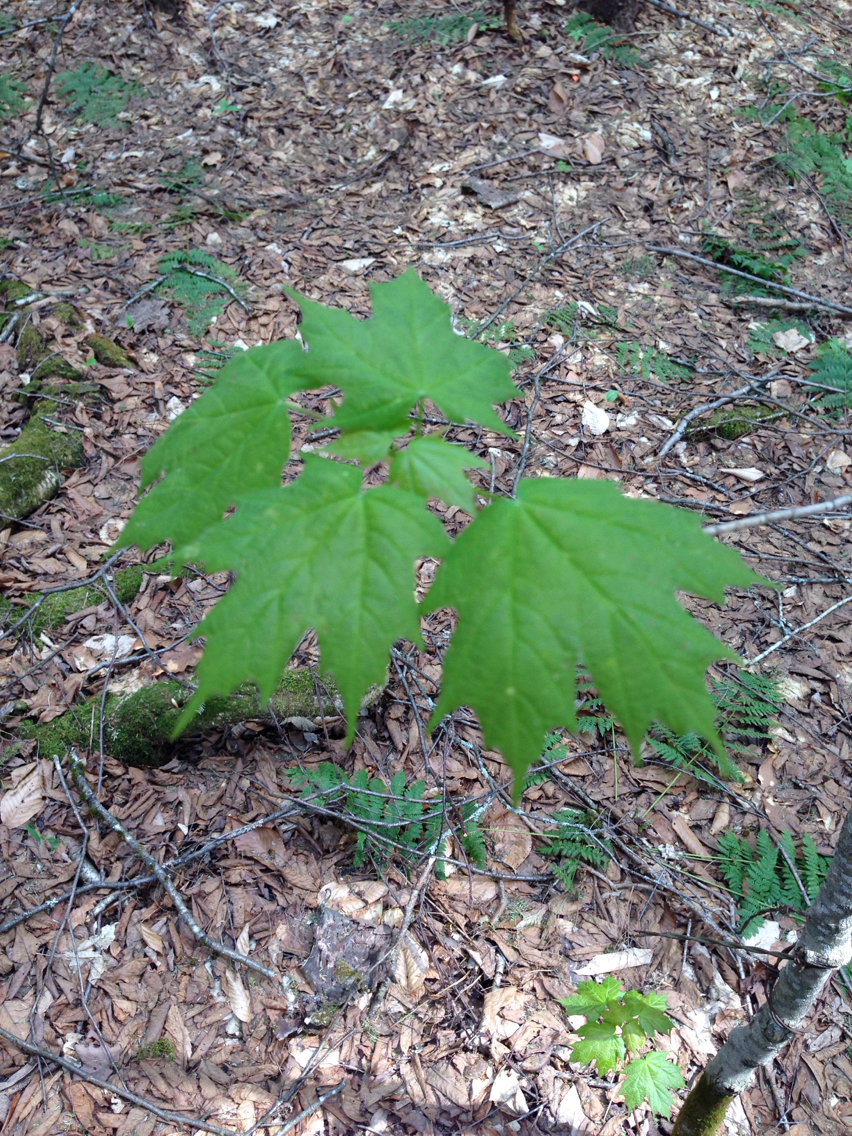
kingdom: Plantae
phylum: Tracheophyta
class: Magnoliopsida
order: Sapindales
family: Sapindaceae
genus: Acer
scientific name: Acer saccharum
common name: Sugar maple
